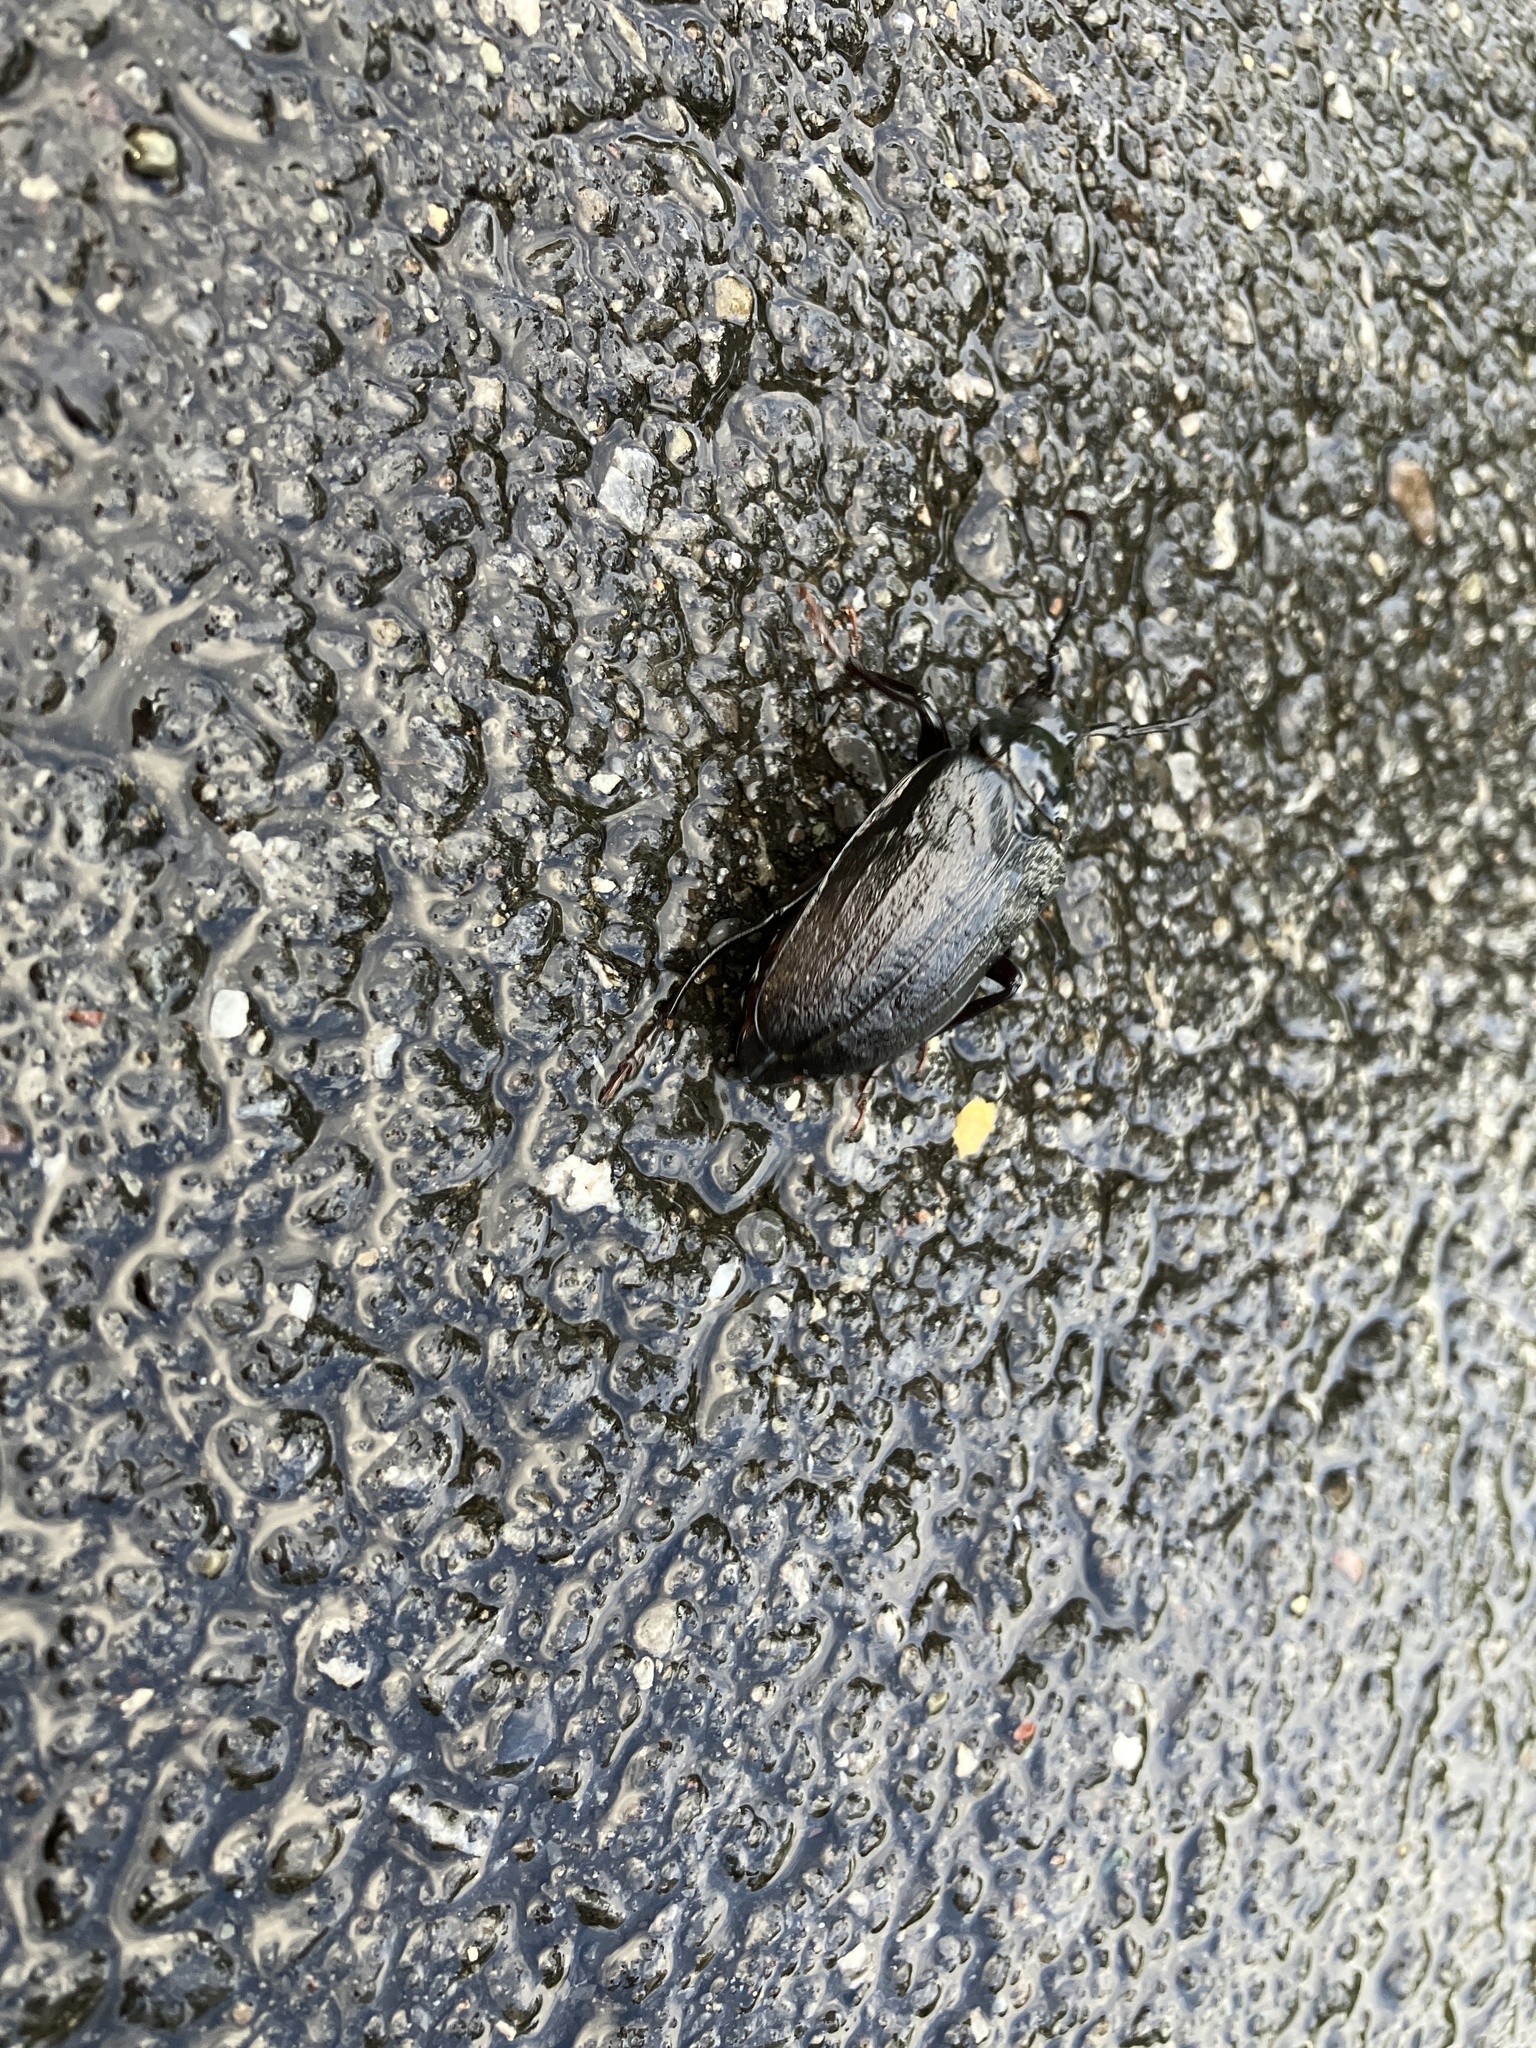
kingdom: Animalia
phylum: Arthropoda
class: Insecta
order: Coleoptera
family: Cerambycidae
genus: Prionus
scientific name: Prionus laticollis
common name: Broad necked prionus
